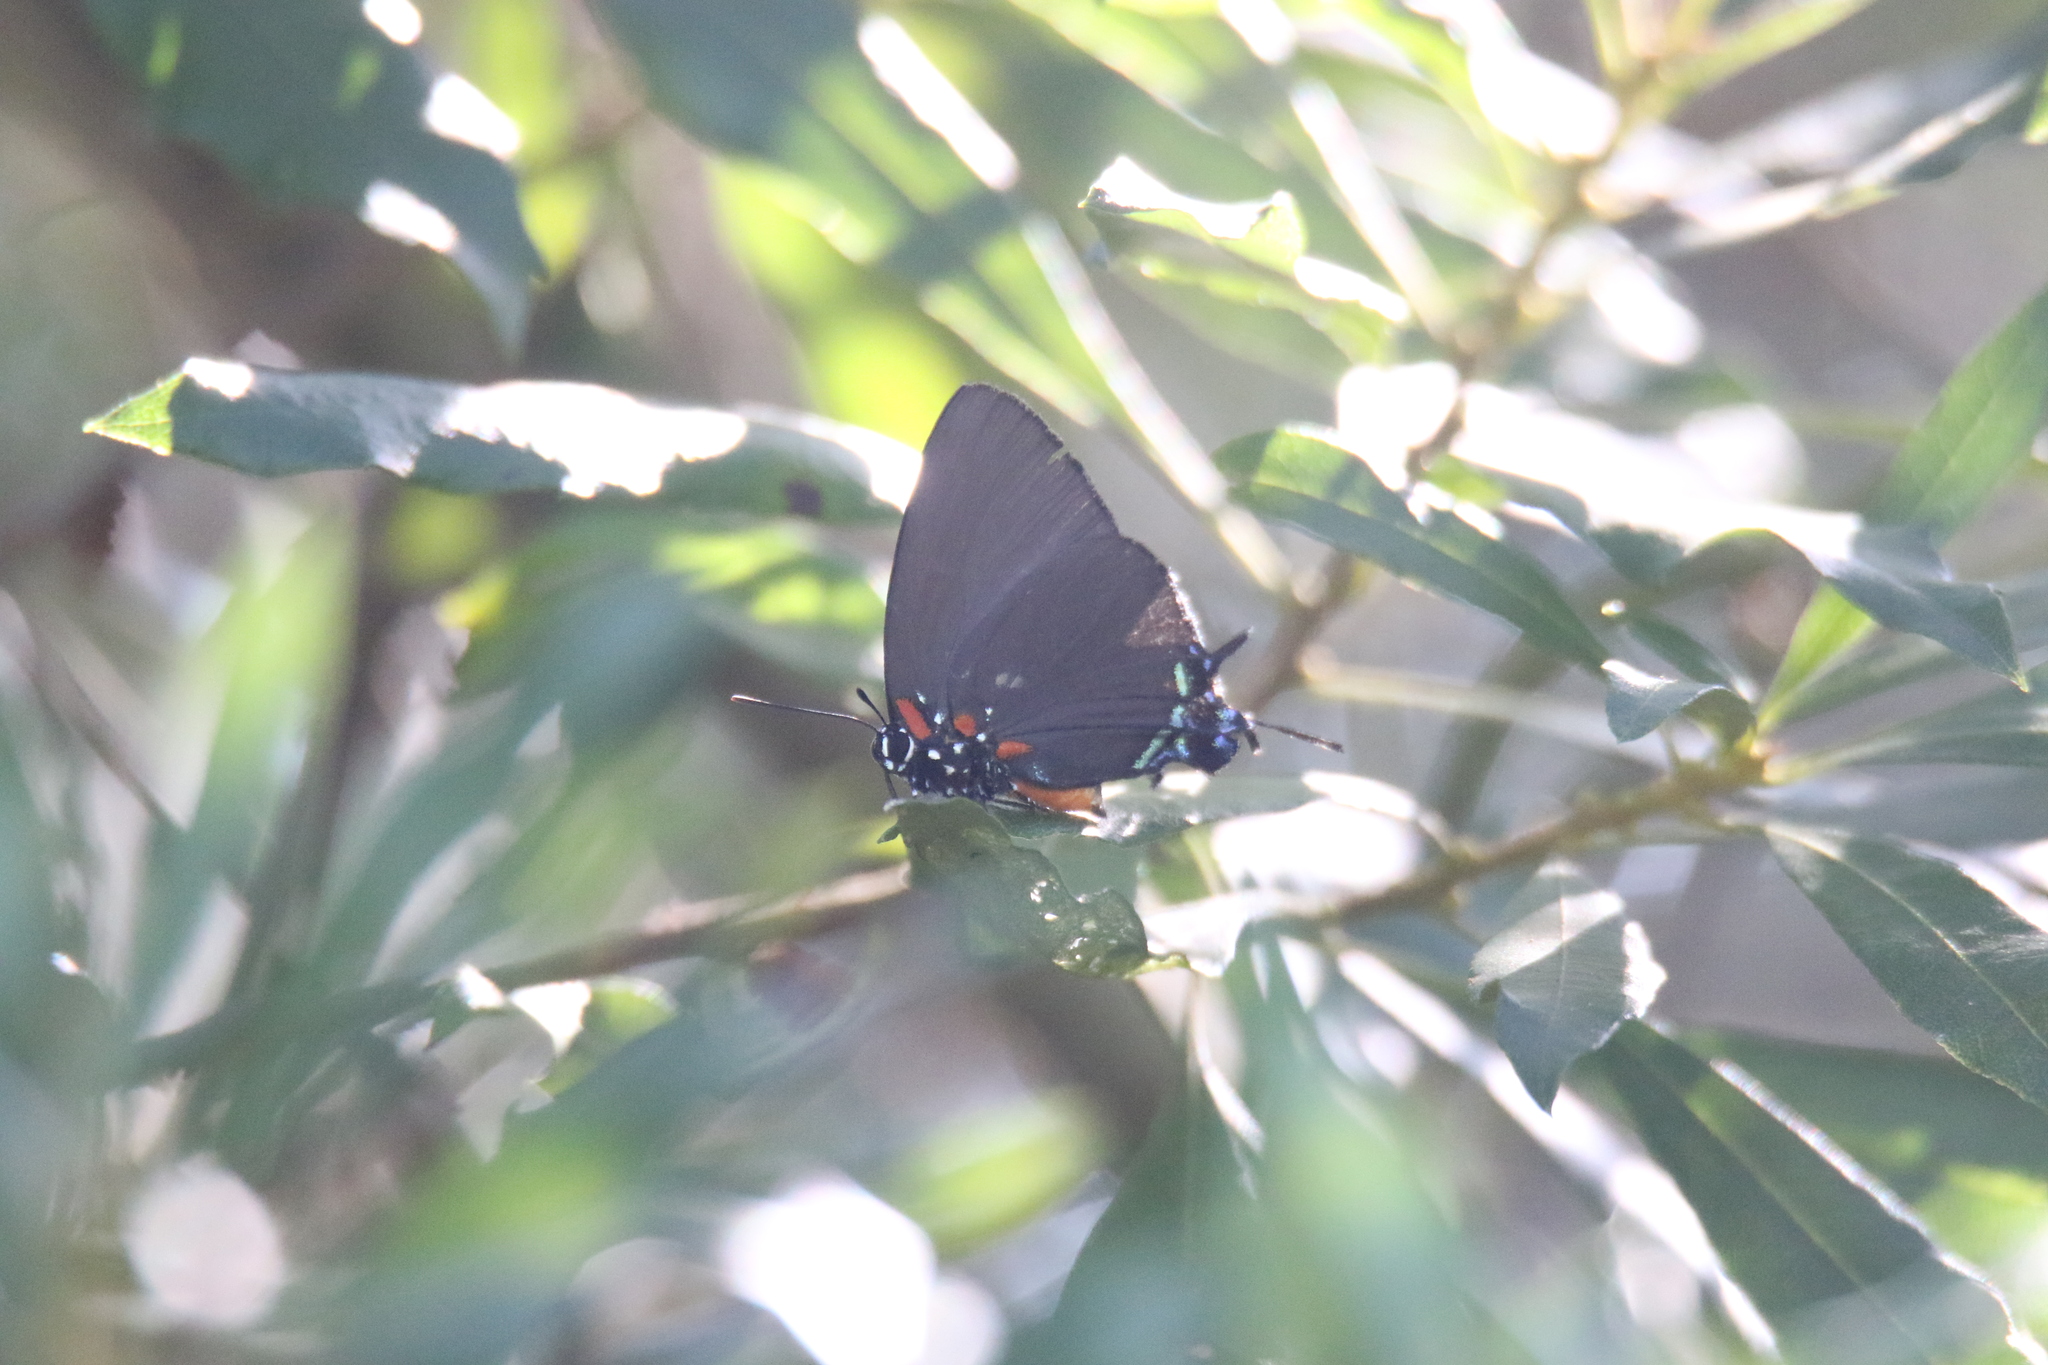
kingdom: Animalia
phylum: Arthropoda
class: Insecta
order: Lepidoptera
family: Lycaenidae
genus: Atlides
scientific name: Atlides halesus
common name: Great purple hairstreak
